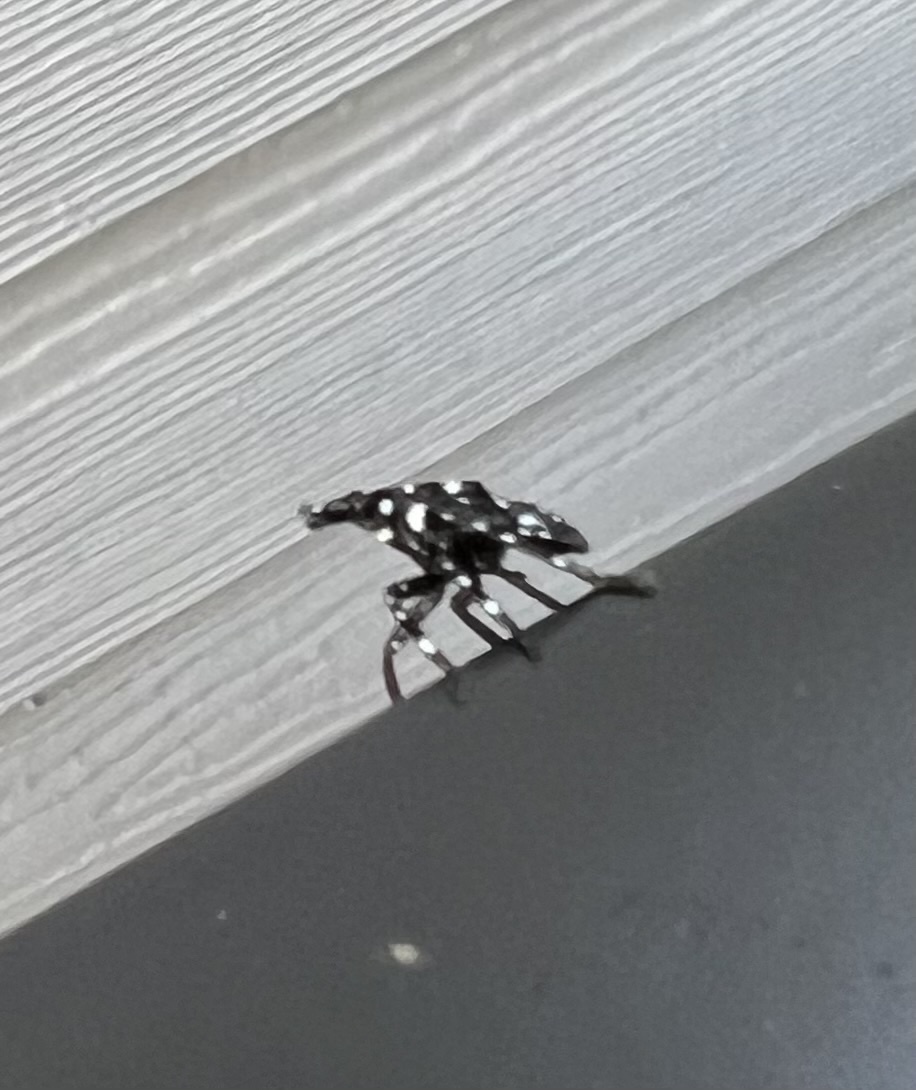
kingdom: Animalia
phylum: Arthropoda
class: Insecta
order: Hemiptera
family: Fulgoridae
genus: Lycorma
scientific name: Lycorma delicatula
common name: Spotted lanternfly
